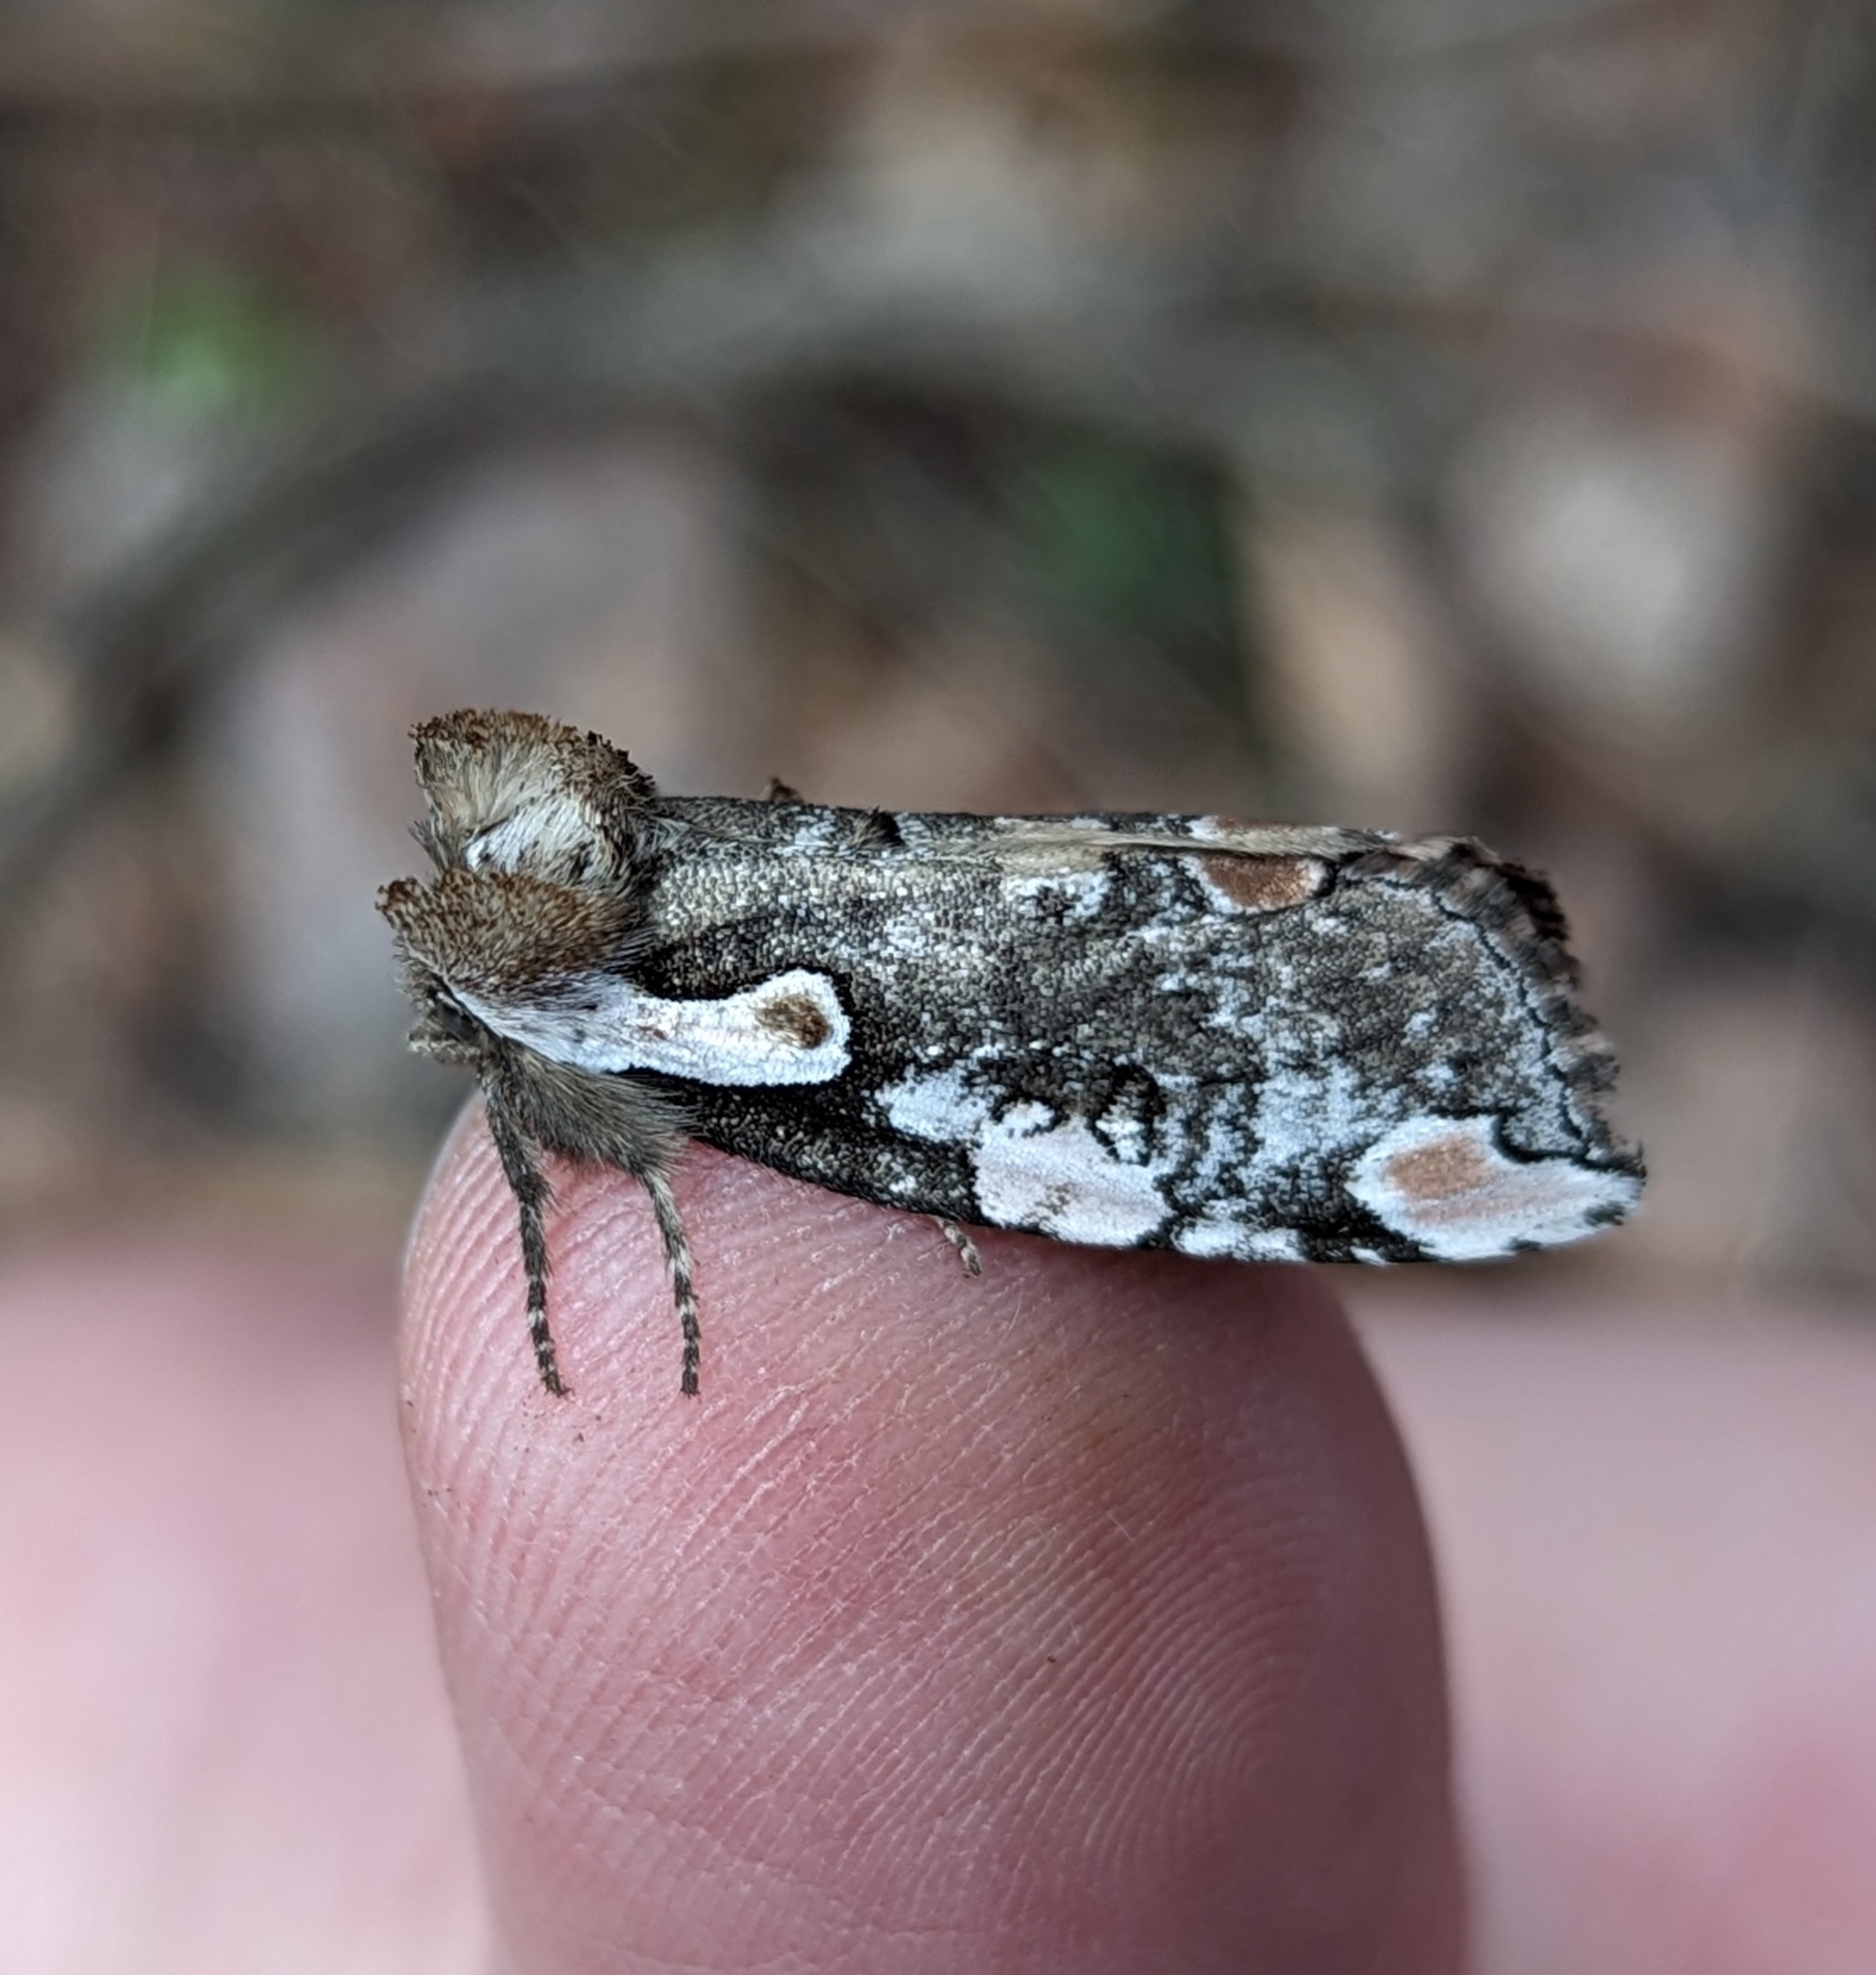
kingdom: Animalia
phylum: Arthropoda
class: Insecta
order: Lepidoptera
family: Drepanidae
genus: Euthyatira
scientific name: Euthyatira pudens
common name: Dogwood thyatirid moth
